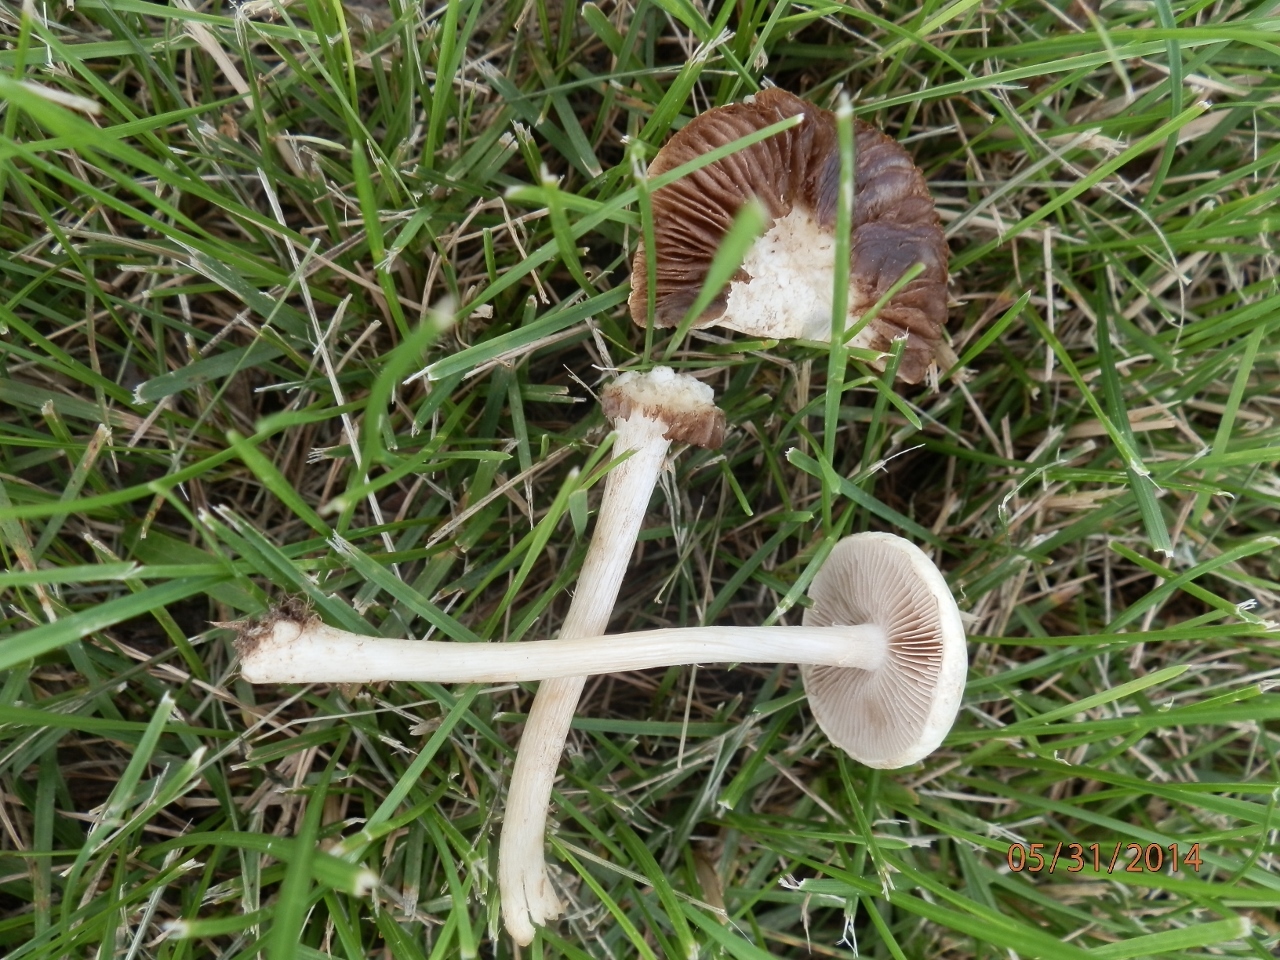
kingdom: Fungi
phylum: Basidiomycota
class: Agaricomycetes
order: Agaricales
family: Strophariaceae
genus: Agrocybe
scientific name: Agrocybe molesta
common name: Bearded fieldcap
